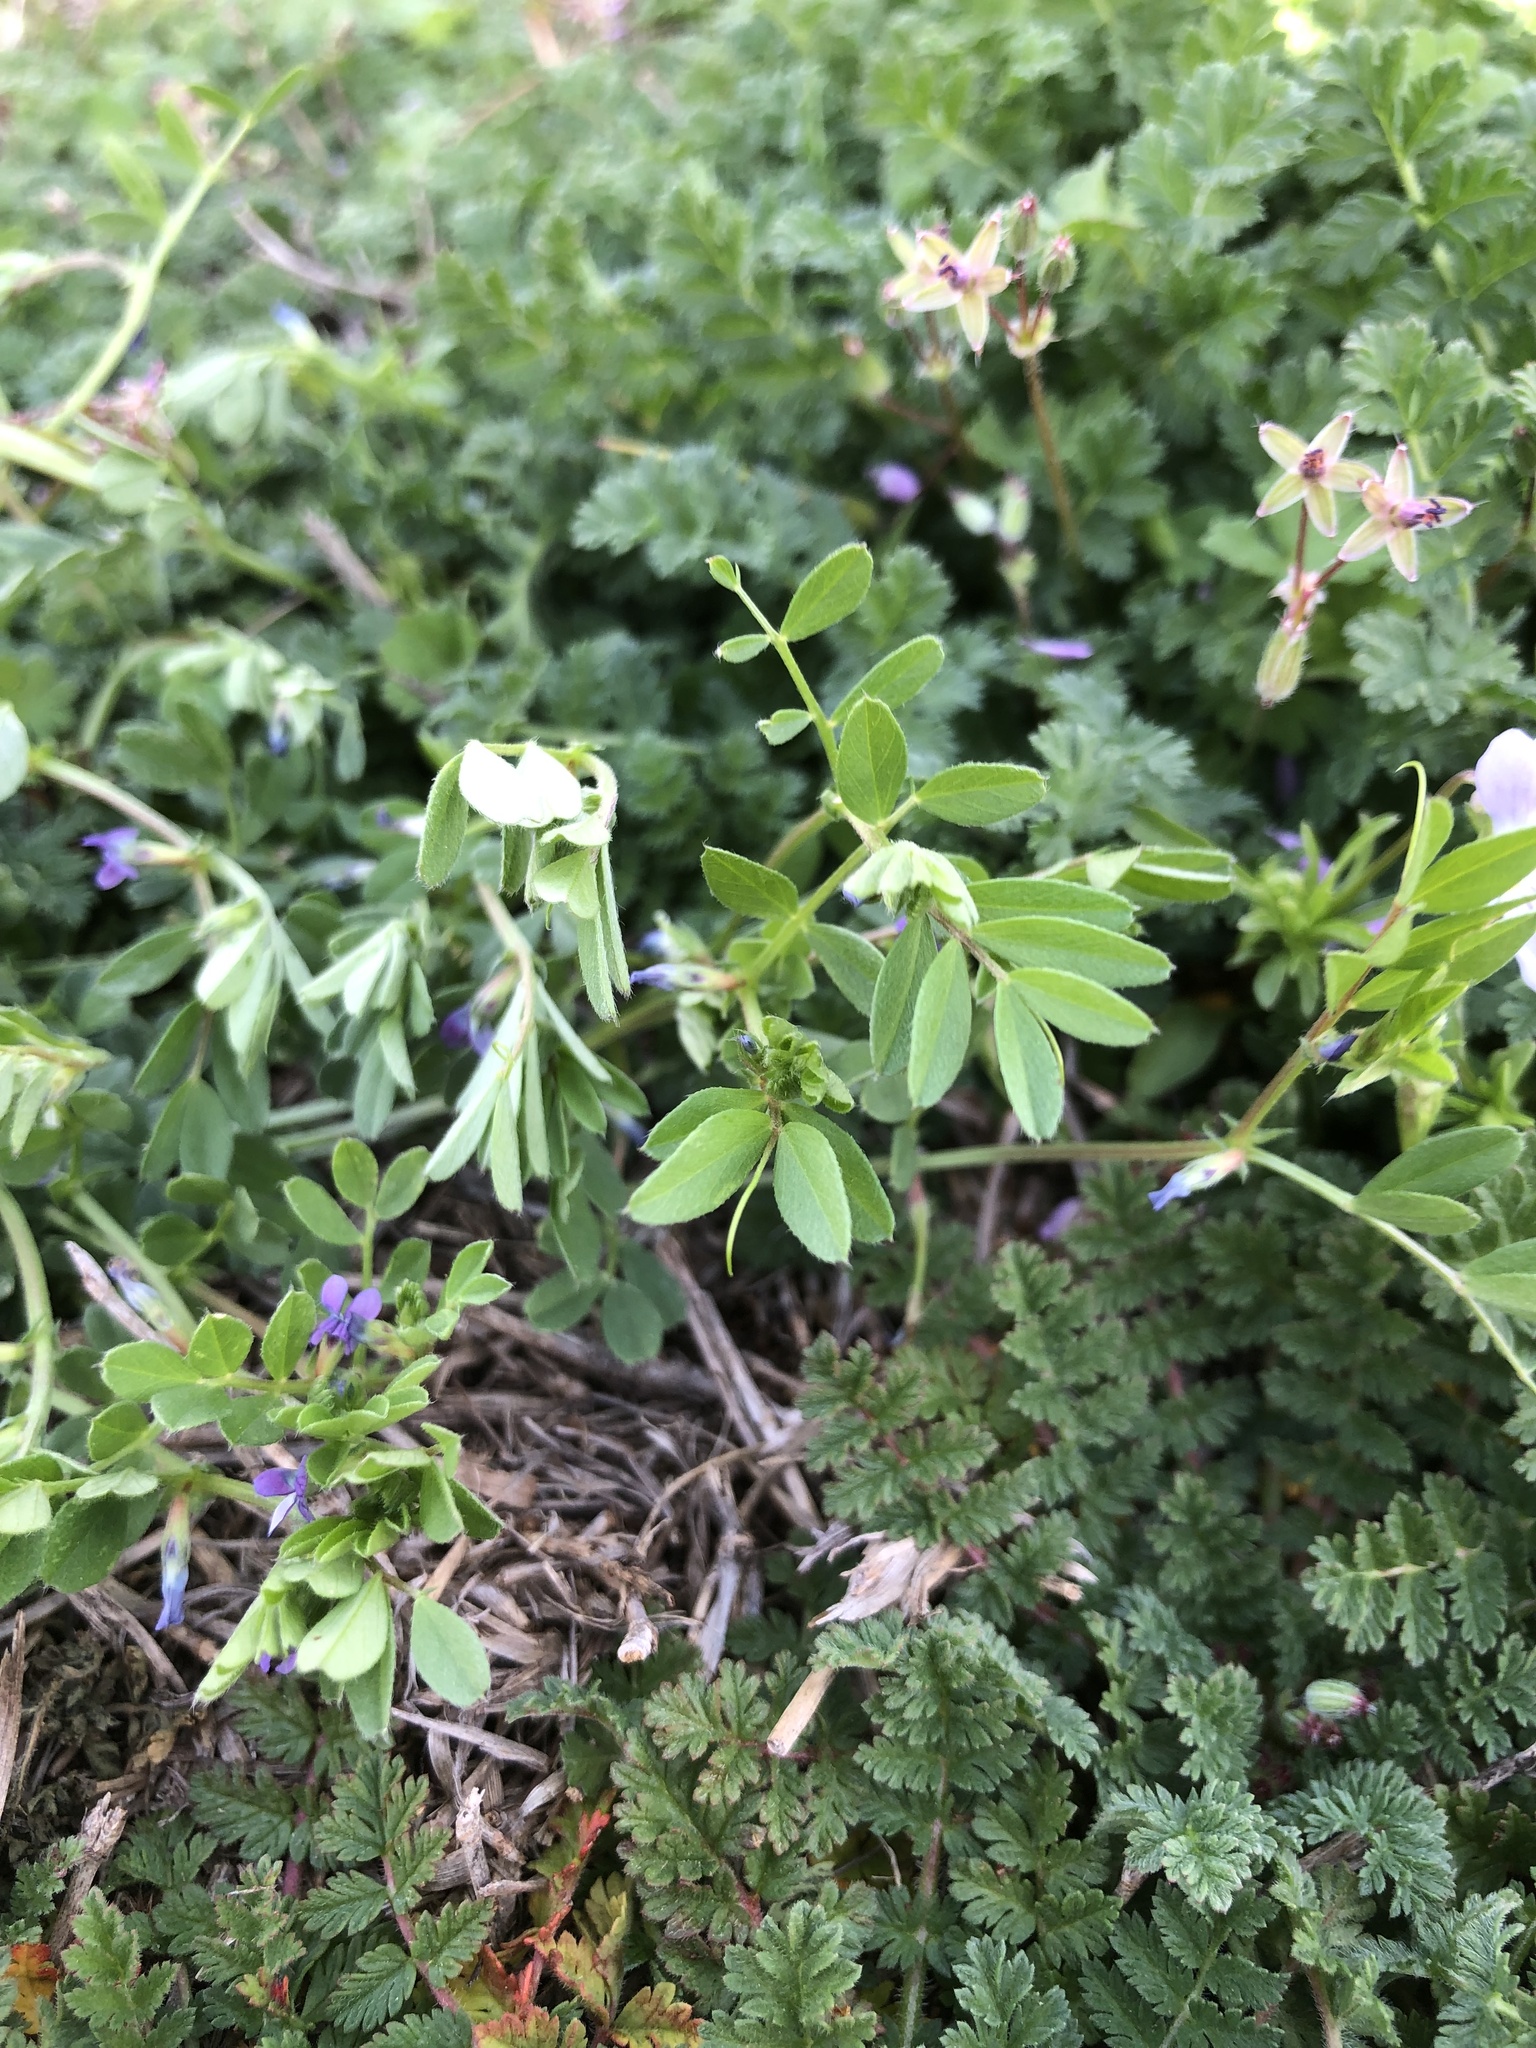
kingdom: Plantae
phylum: Tracheophyta
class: Magnoliopsida
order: Fabales
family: Fabaceae
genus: Vicia
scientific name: Vicia lathyroides
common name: Spring vetch
